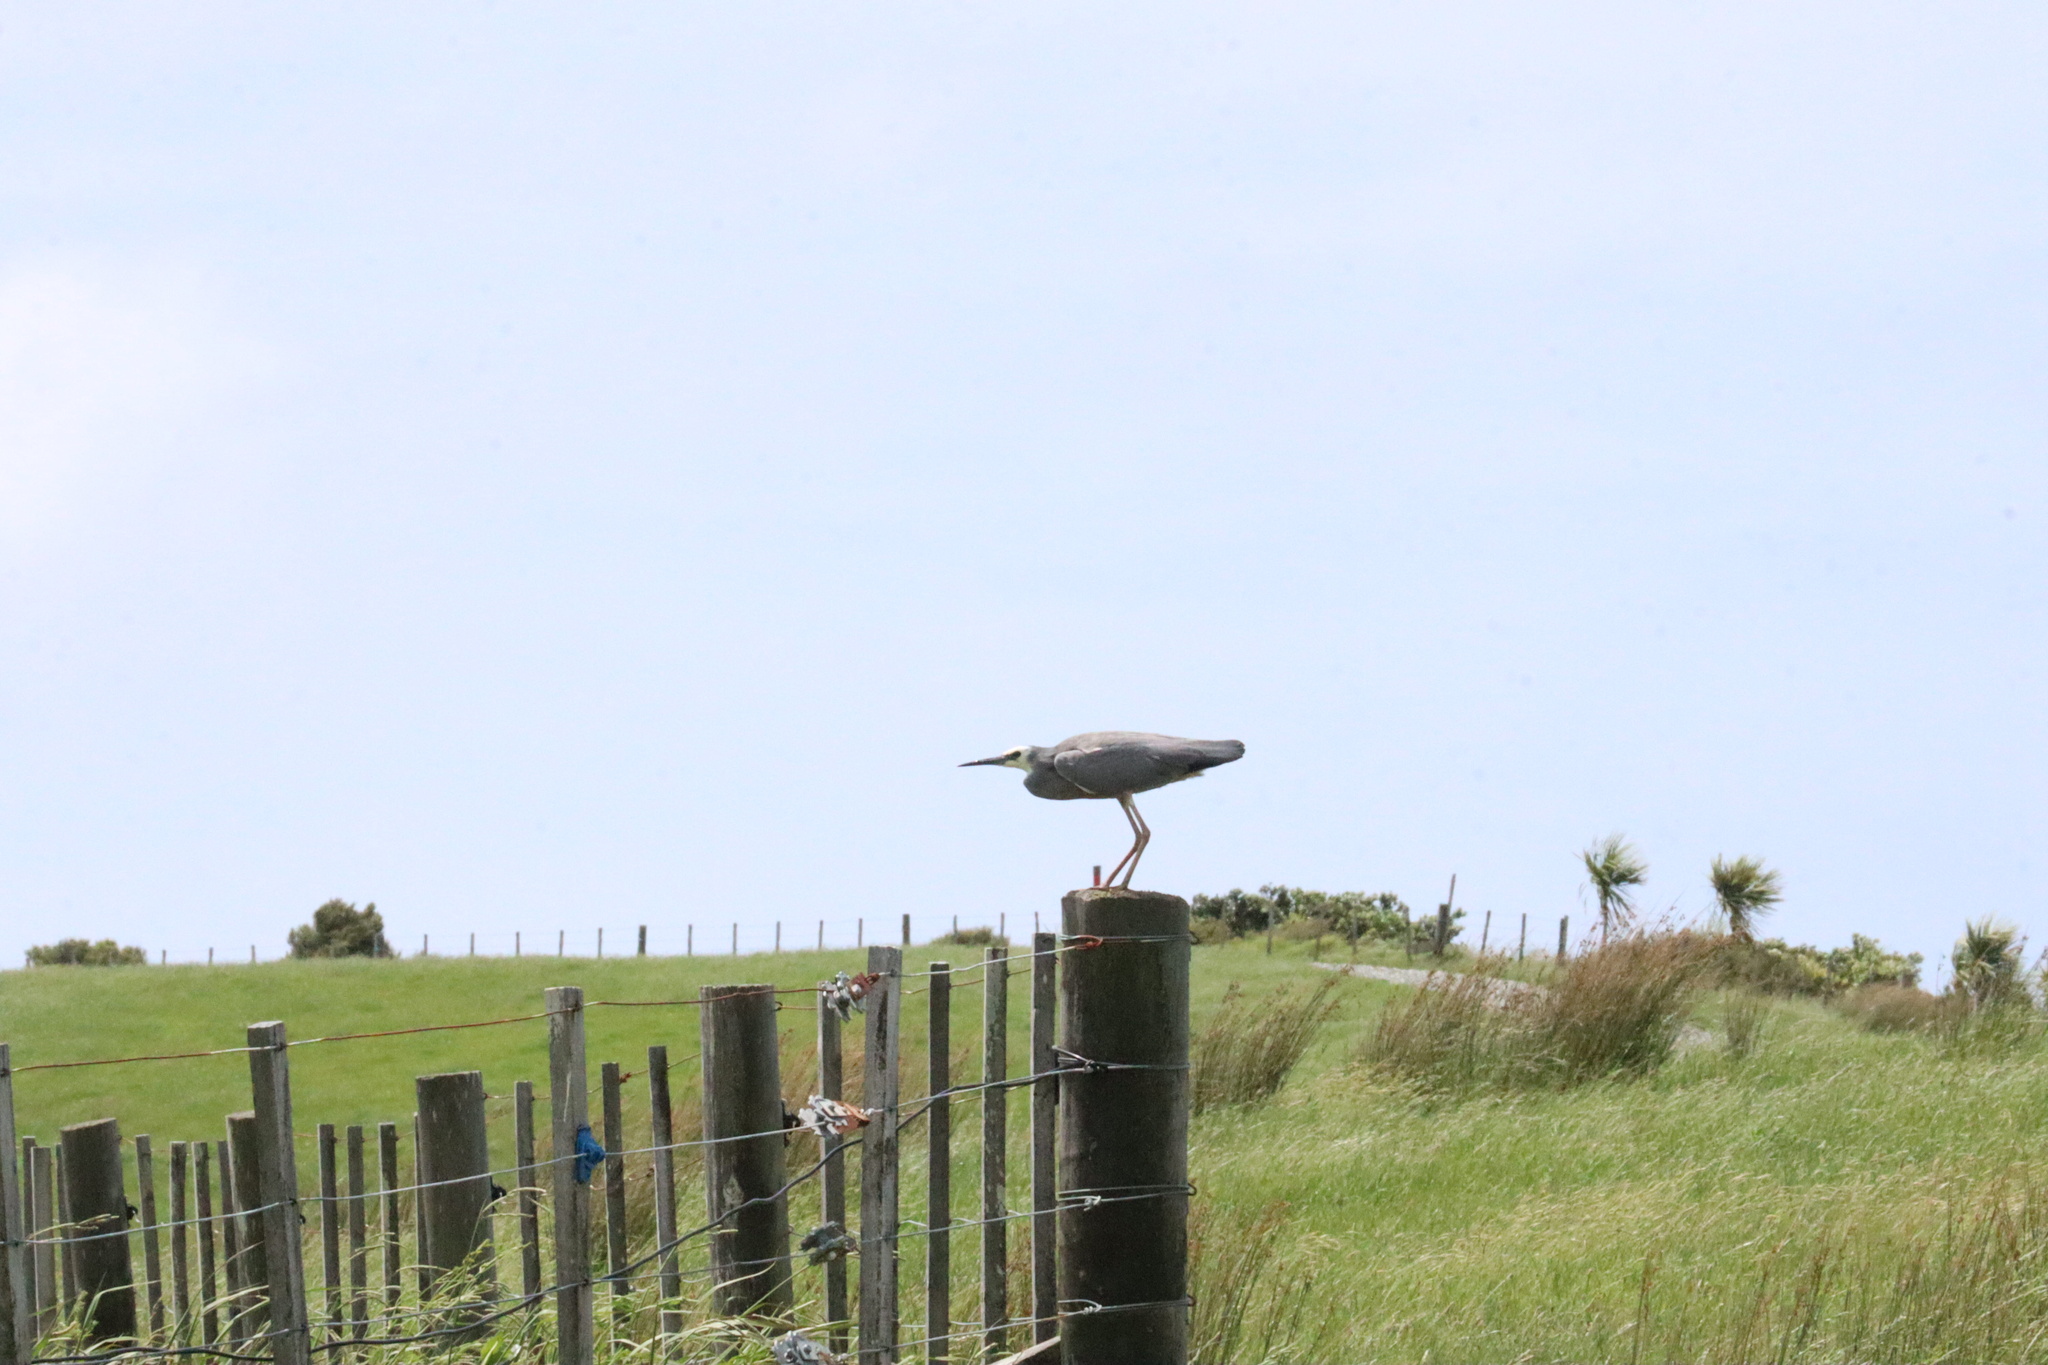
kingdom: Animalia
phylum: Chordata
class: Aves
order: Pelecaniformes
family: Ardeidae
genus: Egretta
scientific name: Egretta novaehollandiae
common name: White-faced heron
